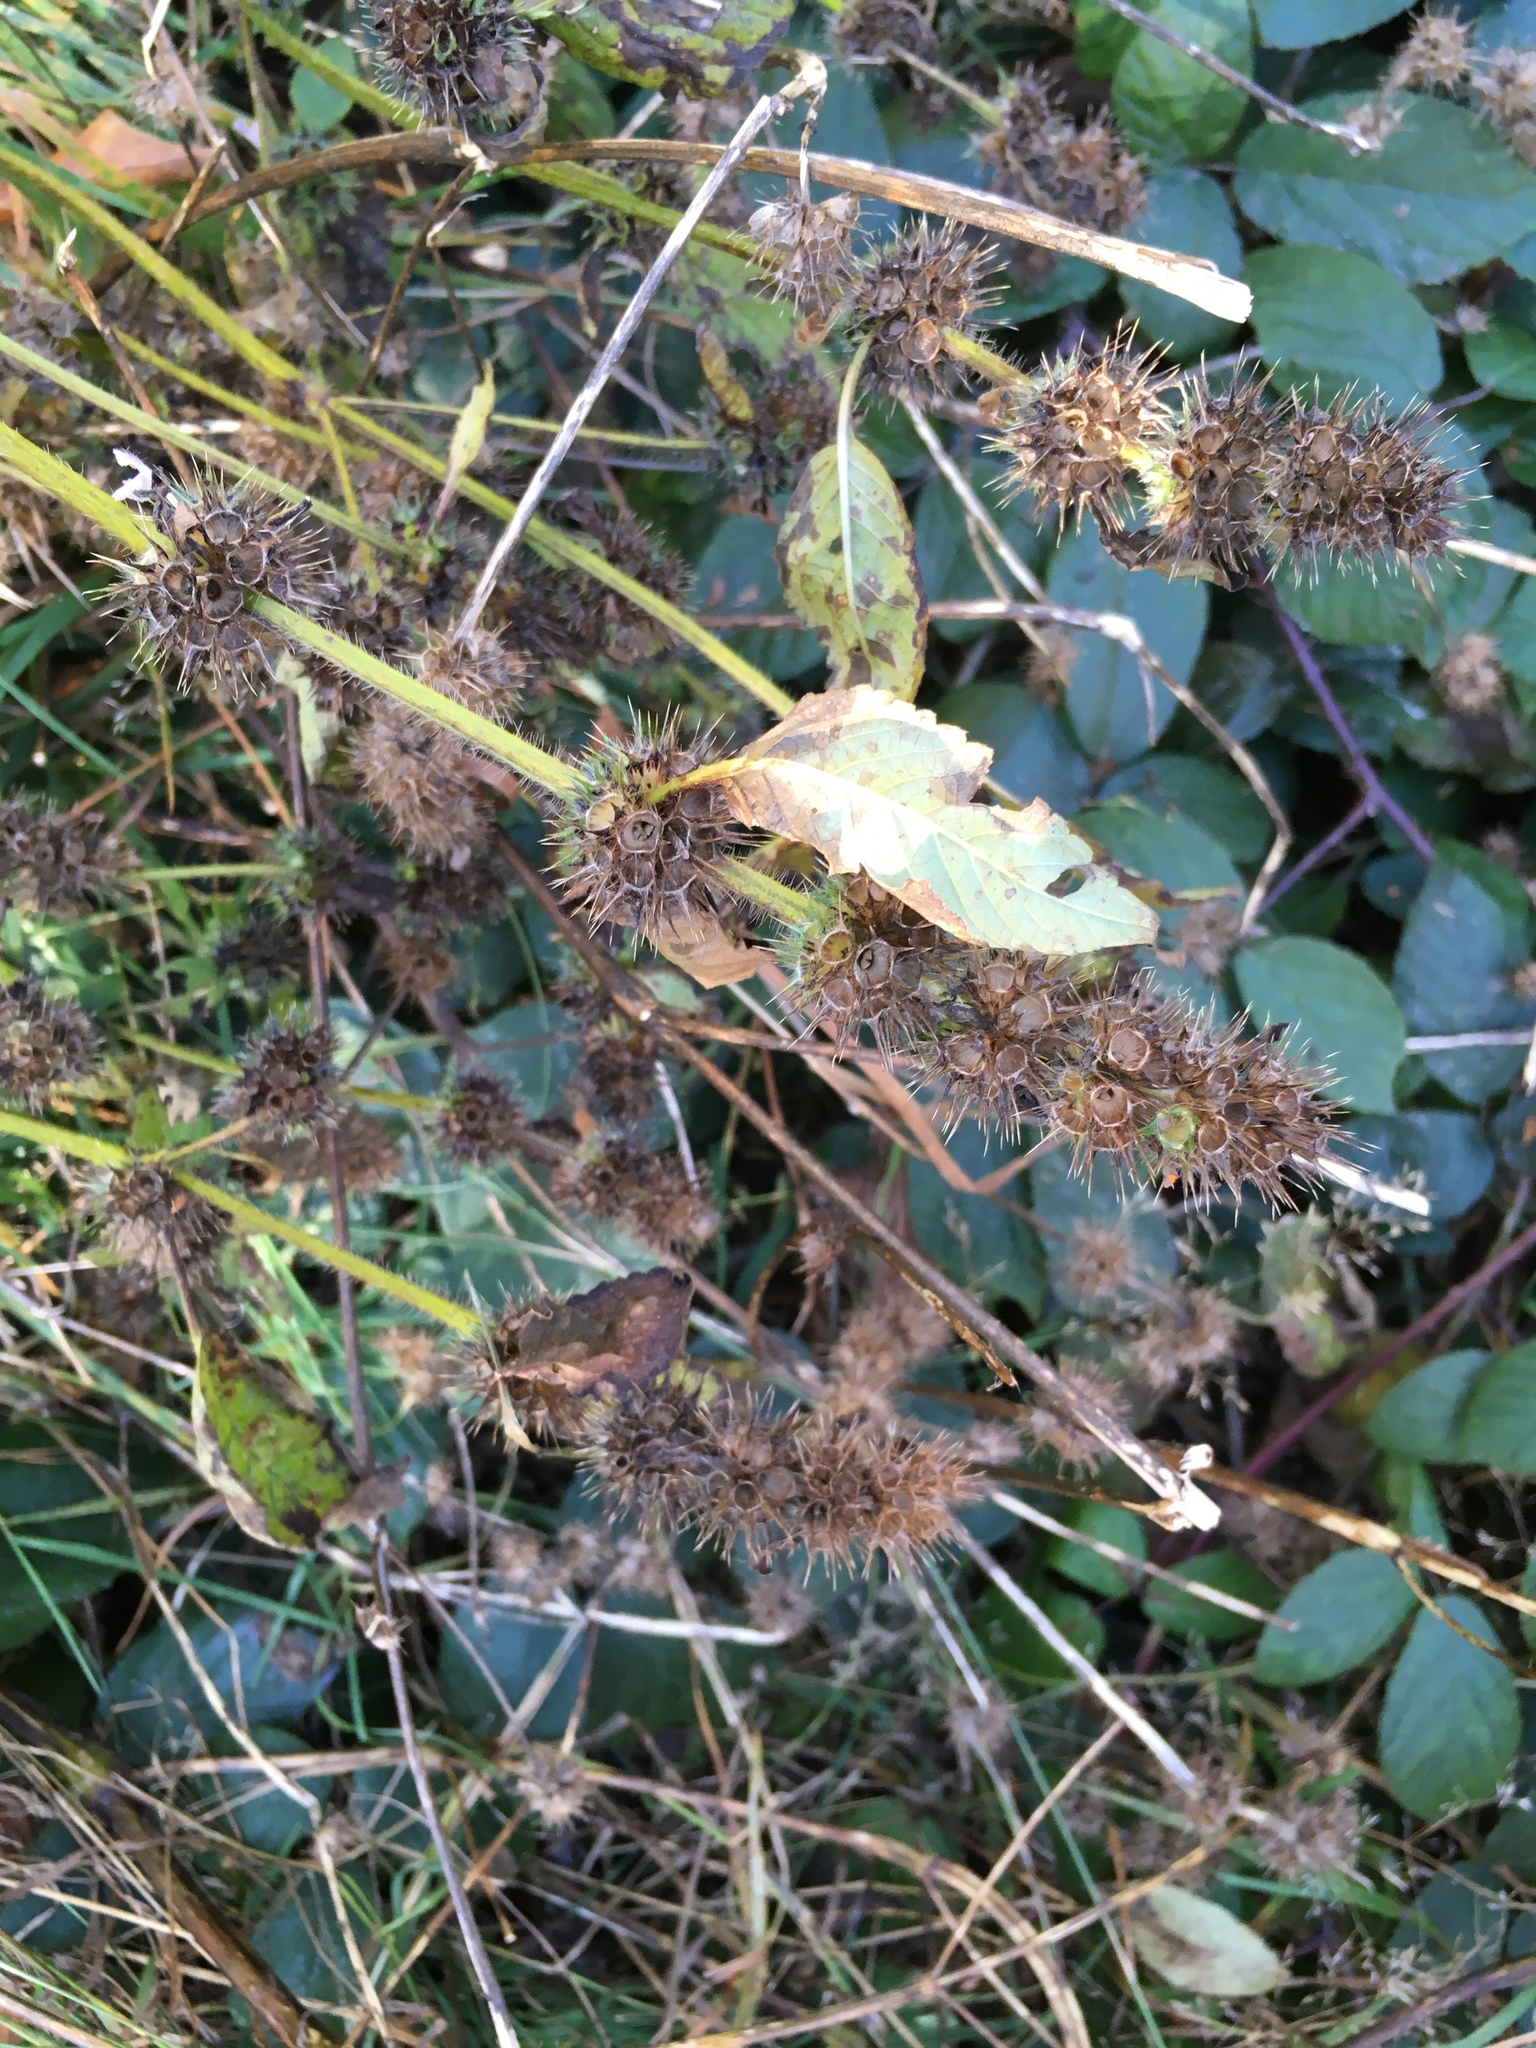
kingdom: Plantae
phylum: Tracheophyta
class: Magnoliopsida
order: Lamiales
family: Lamiaceae
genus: Galeopsis
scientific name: Galeopsis tetrahit
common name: Common hemp-nettle
